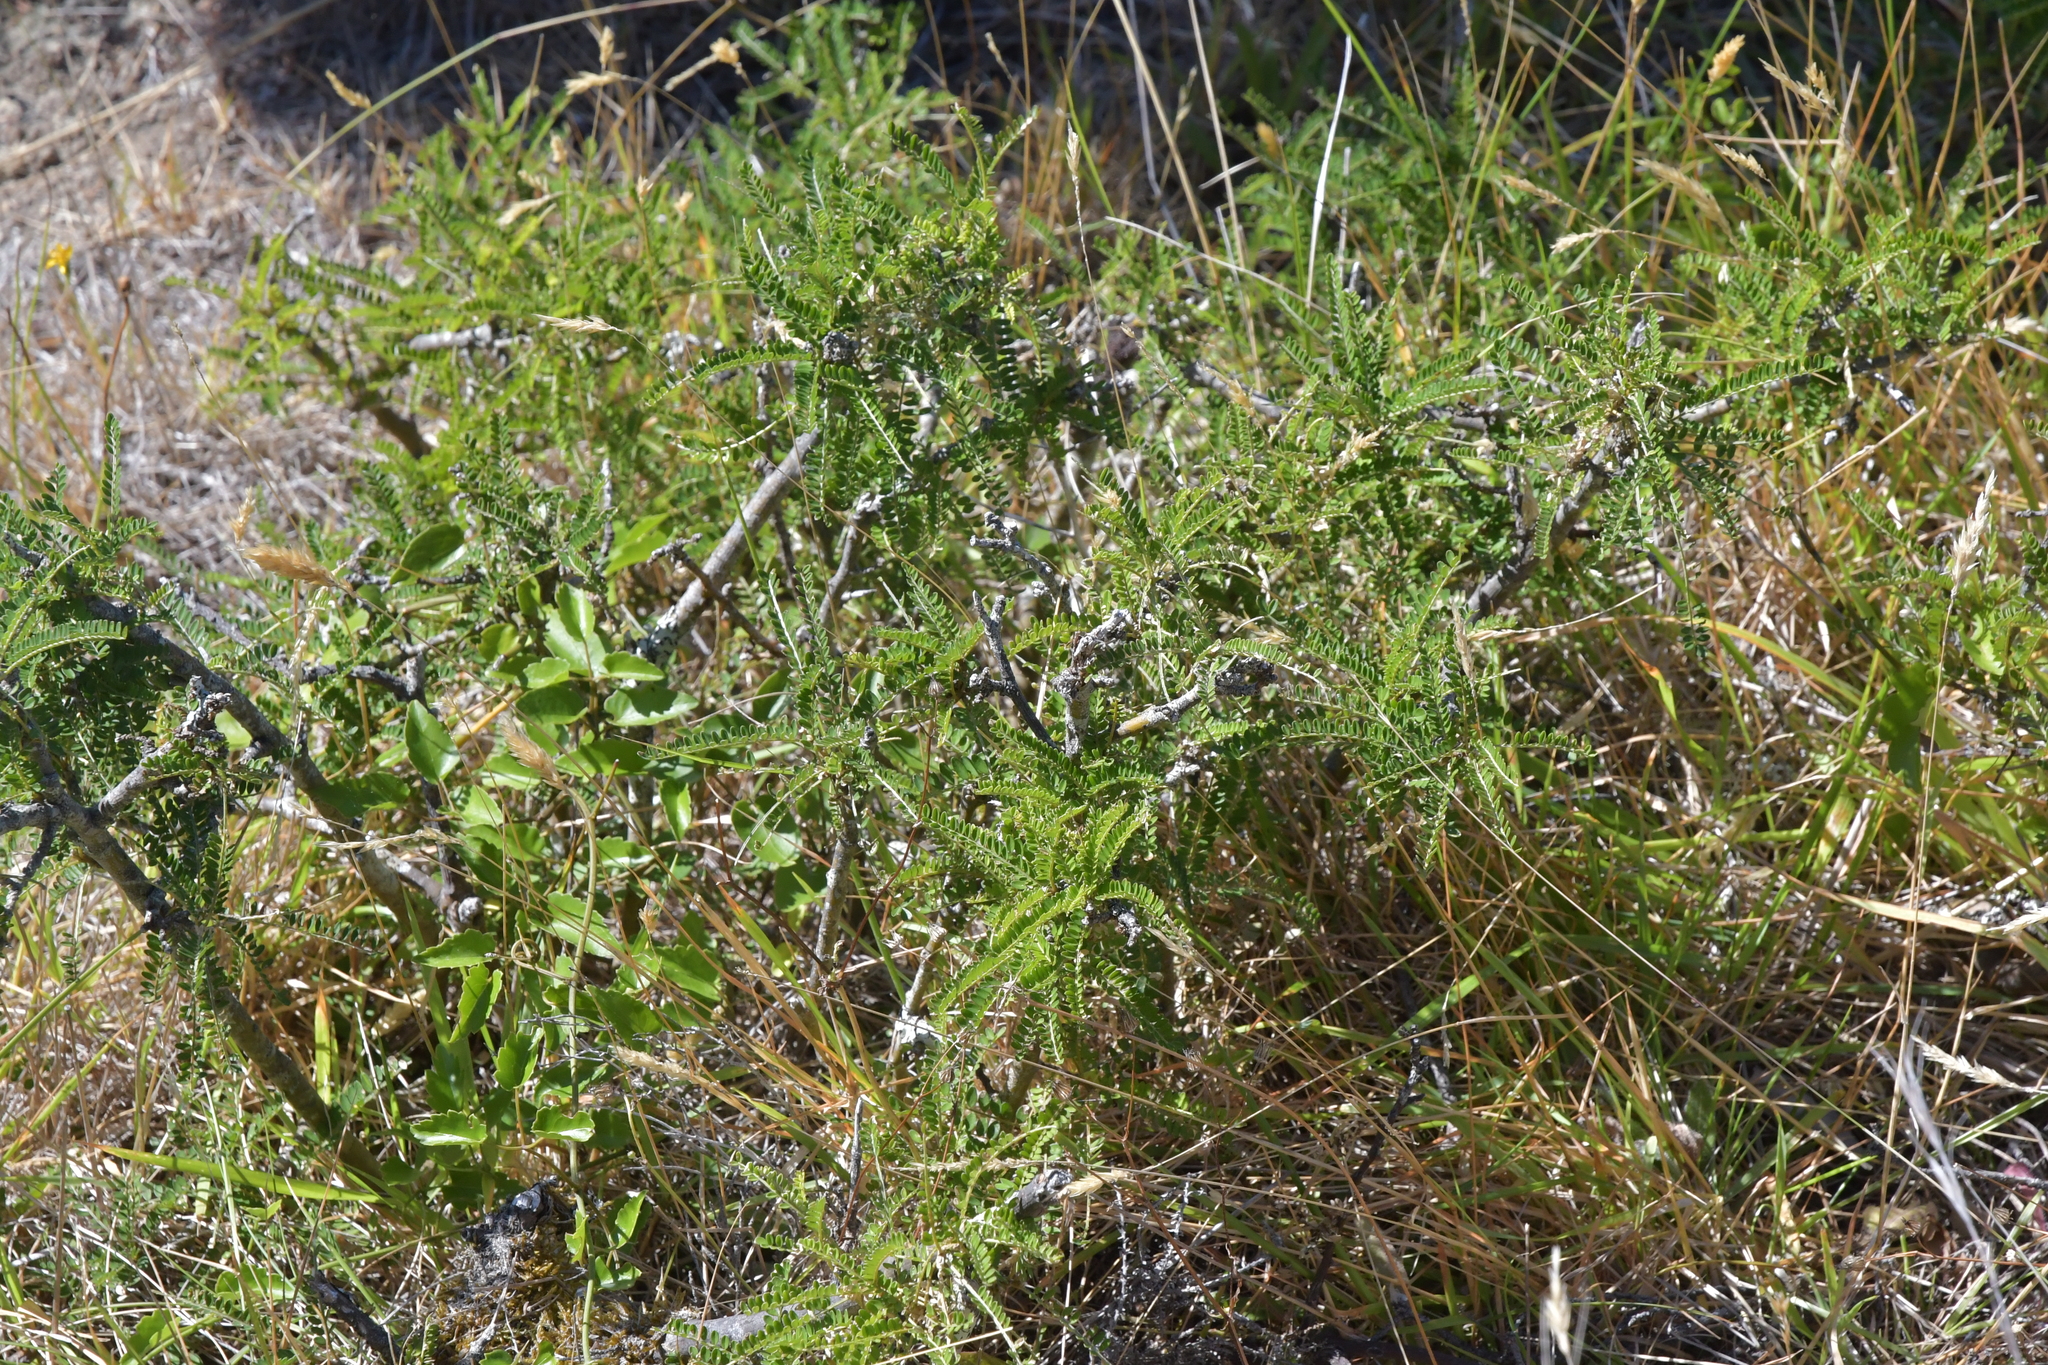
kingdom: Plantae
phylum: Tracheophyta
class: Magnoliopsida
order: Fabales
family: Fabaceae
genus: Sophora
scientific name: Sophora molloyi
